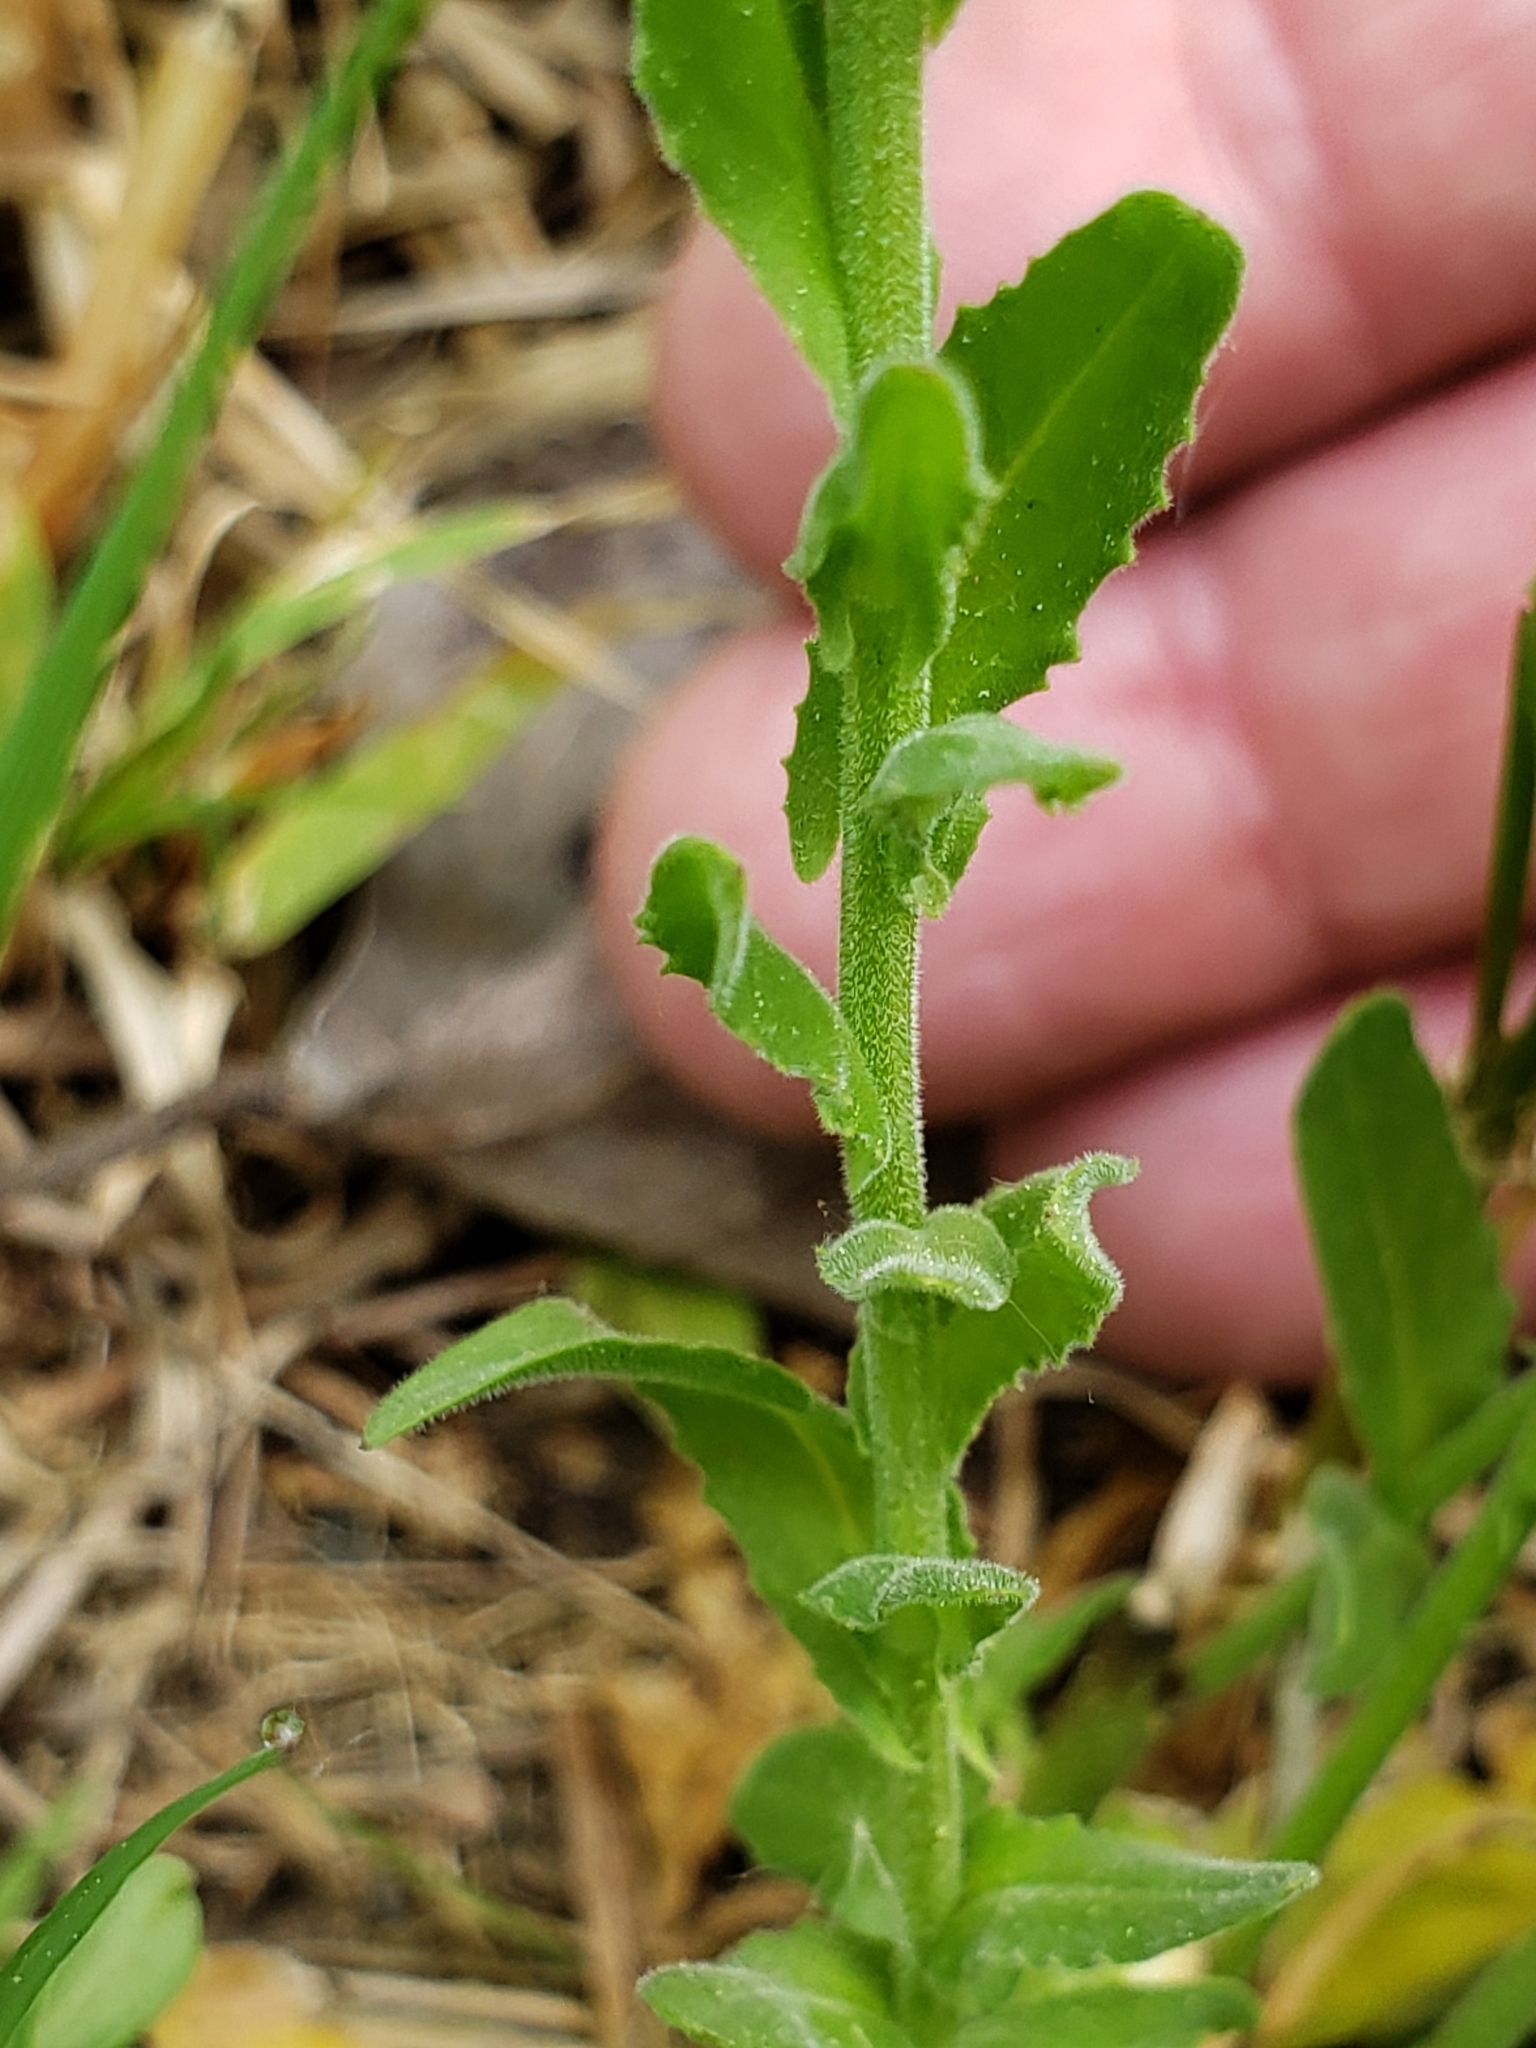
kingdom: Plantae
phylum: Tracheophyta
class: Magnoliopsida
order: Brassicales
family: Brassicaceae
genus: Lepidium
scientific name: Lepidium campestre
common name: Field pepperwort
